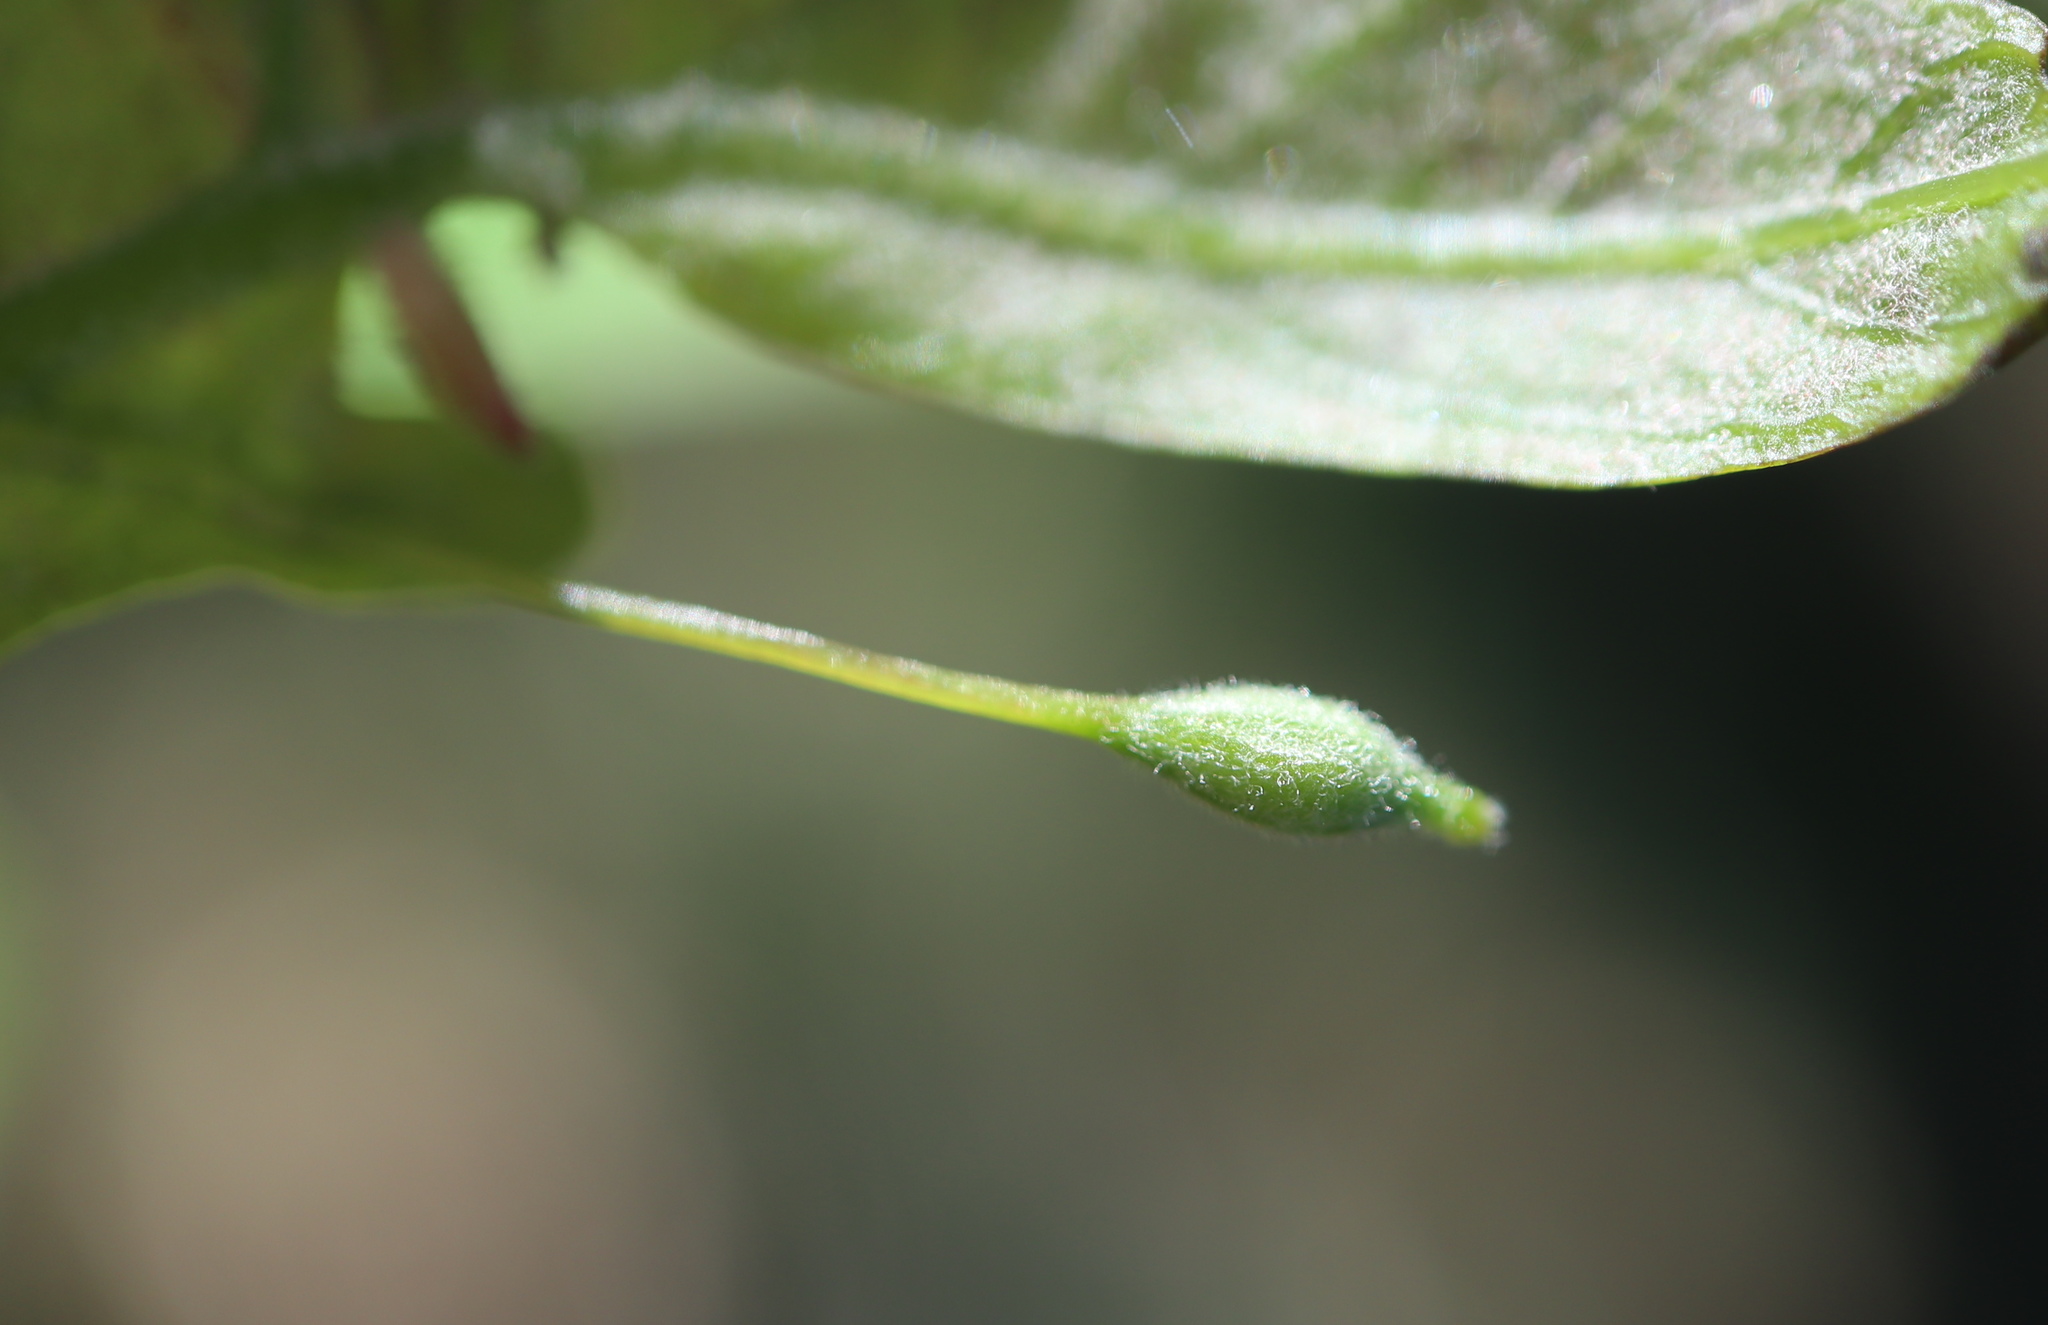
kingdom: Animalia
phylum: Arthropoda
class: Insecta
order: Hymenoptera
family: Cynipidae
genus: Andricus
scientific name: Andricus
